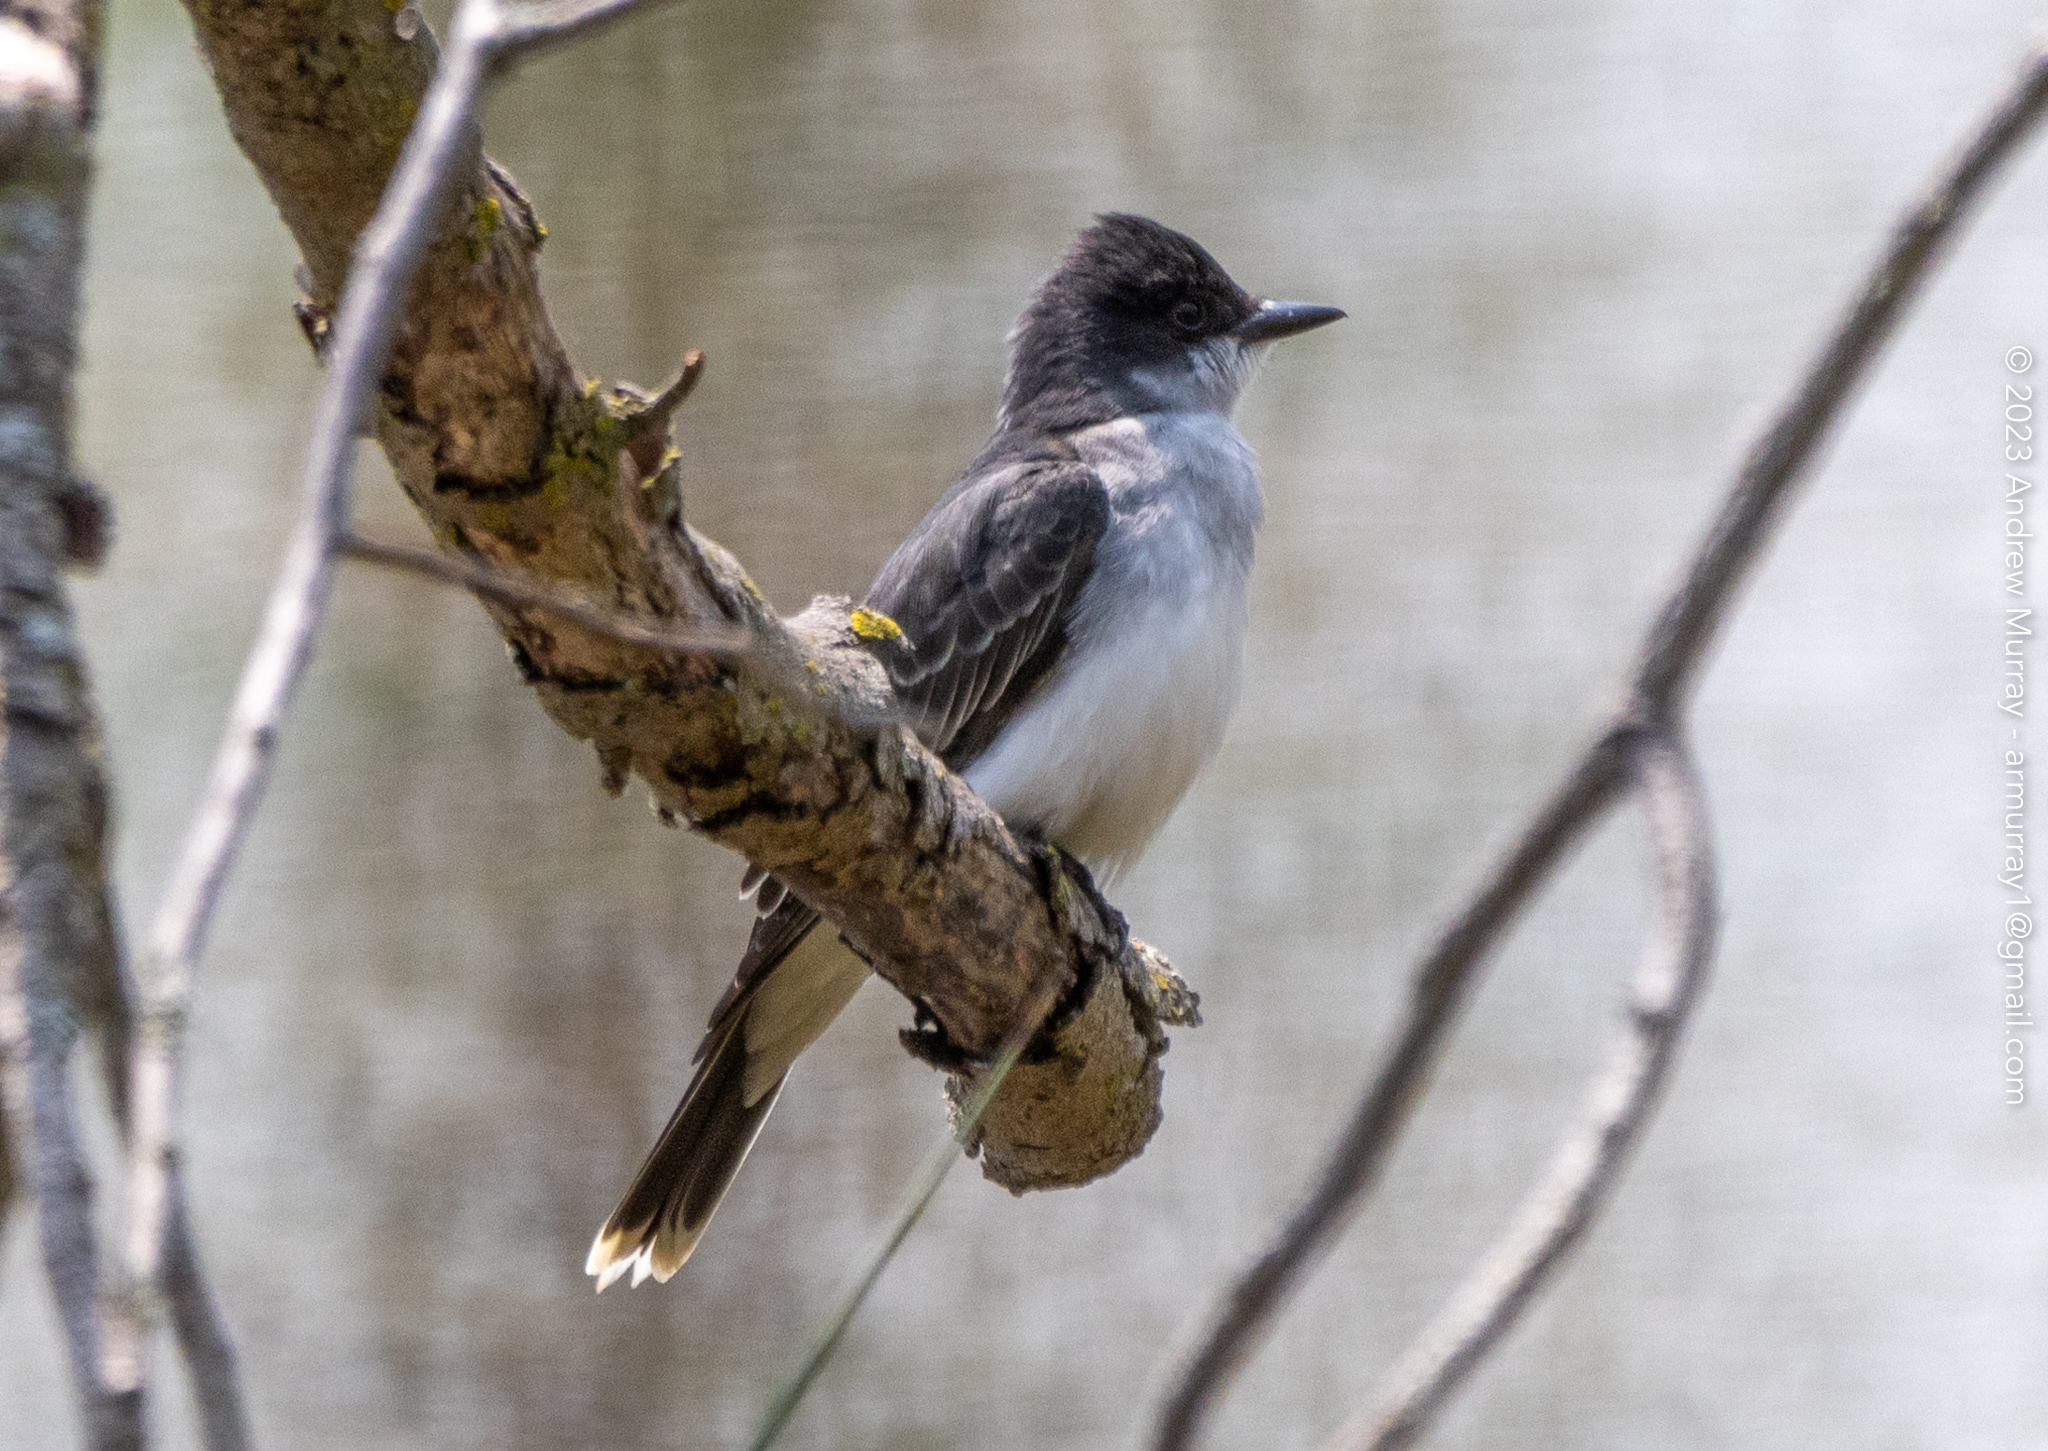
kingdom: Animalia
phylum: Chordata
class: Aves
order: Passeriformes
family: Tyrannidae
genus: Tyrannus
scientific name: Tyrannus tyrannus
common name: Eastern kingbird
